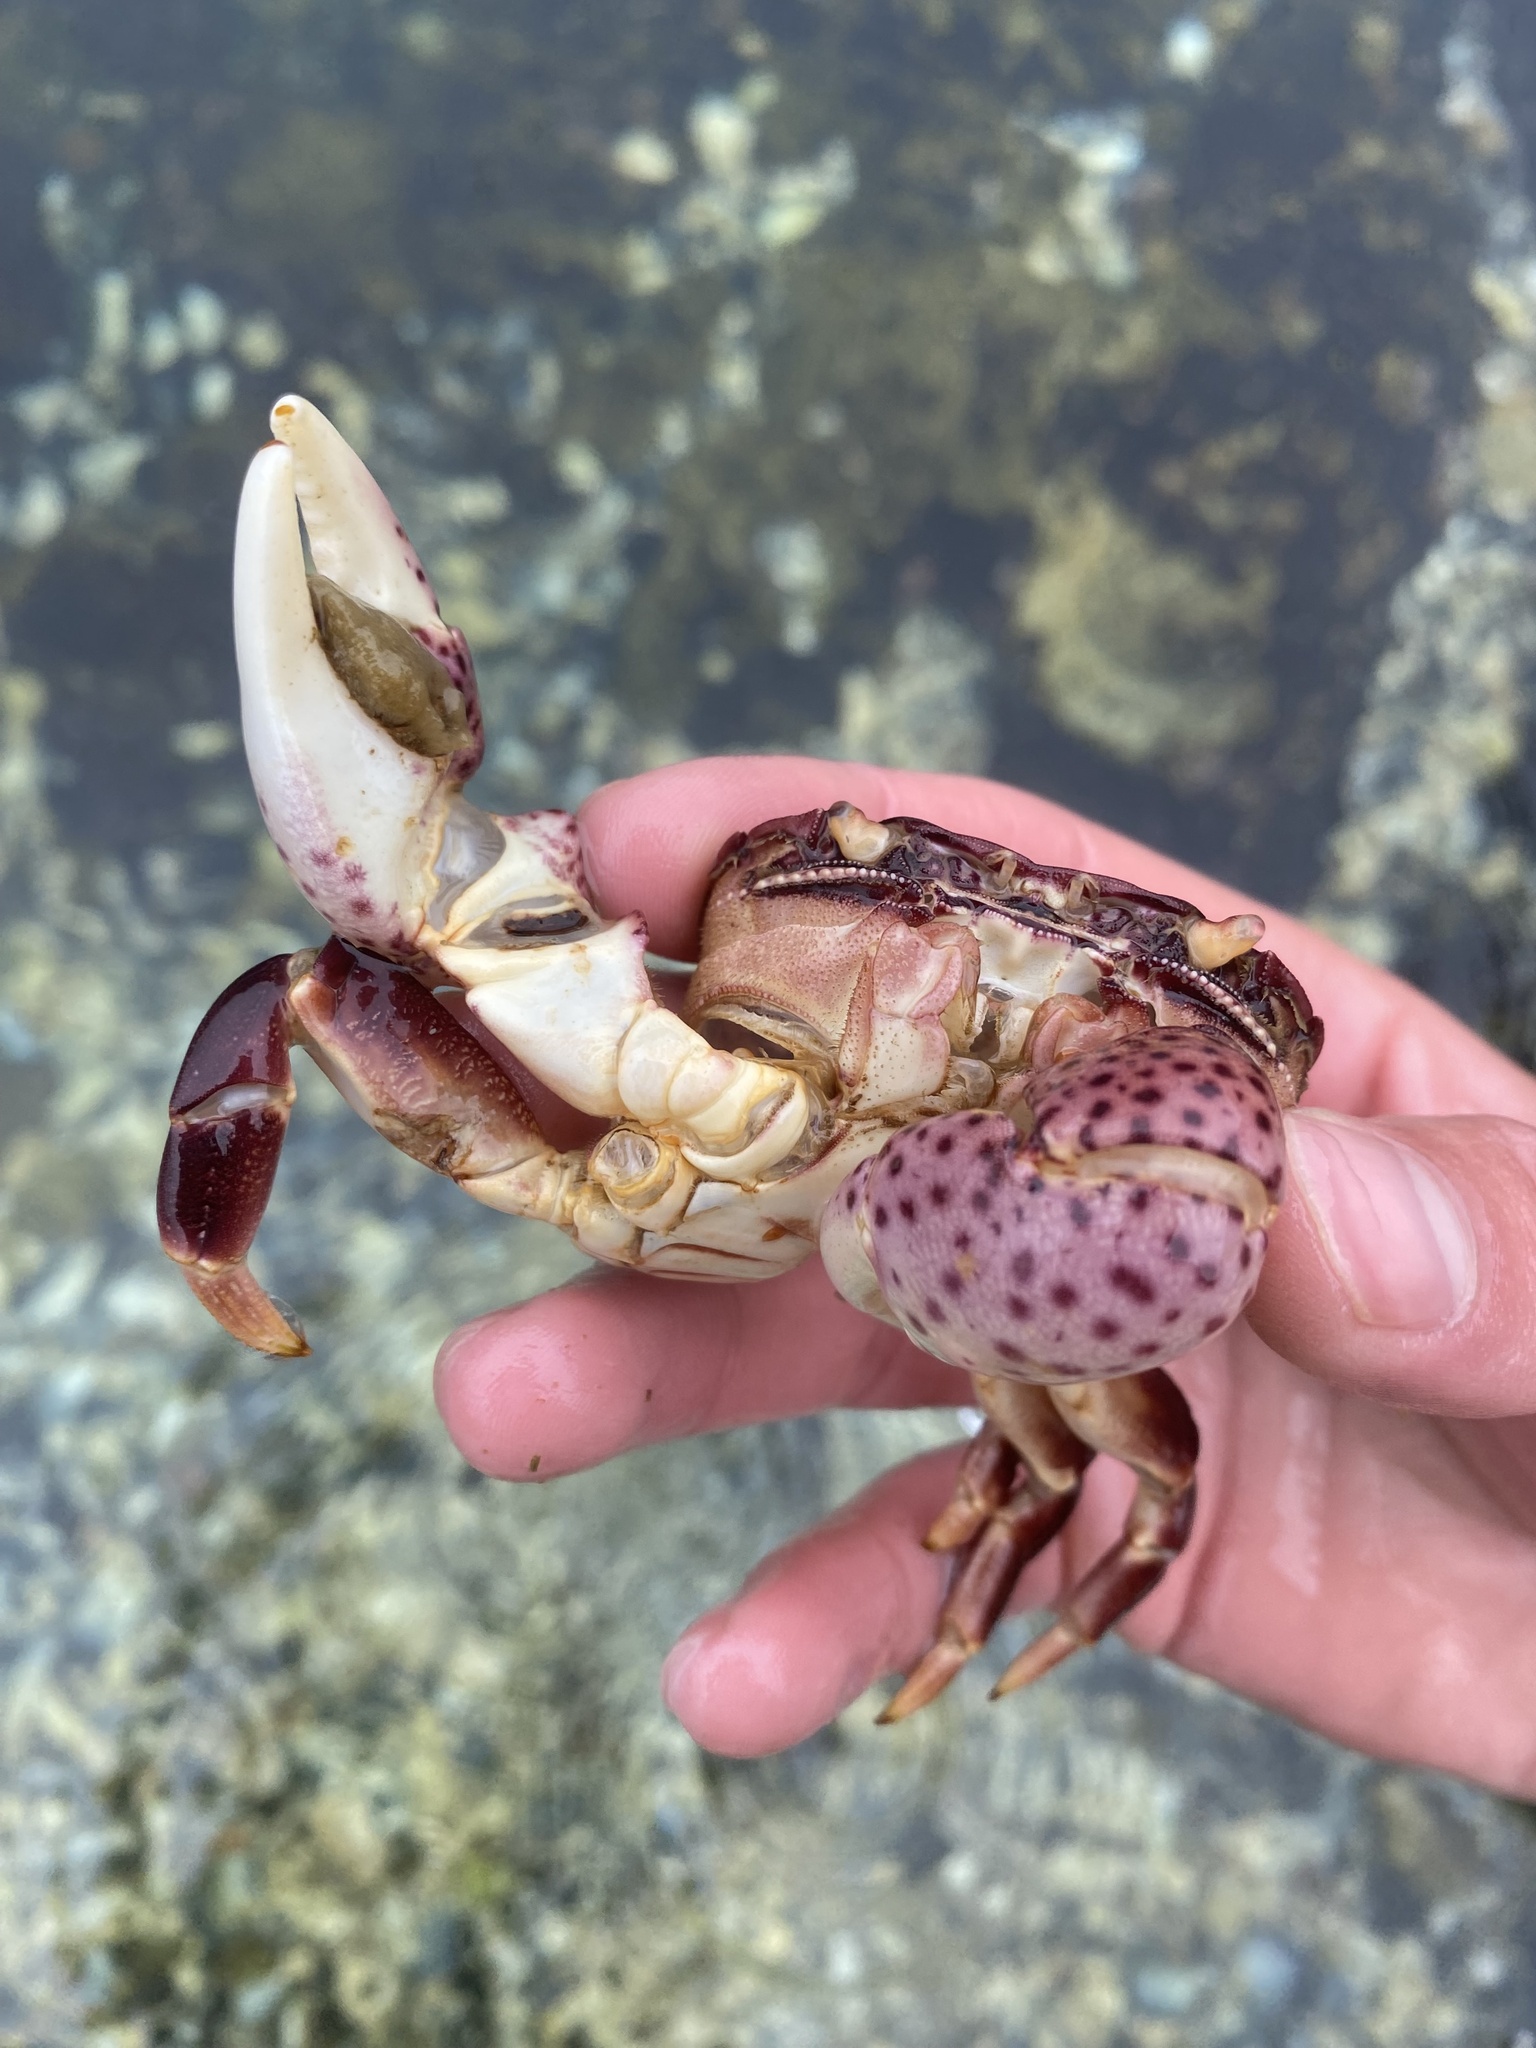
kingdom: Animalia
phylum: Arthropoda
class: Malacostraca
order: Decapoda
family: Varunidae
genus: Hemigrapsus
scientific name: Hemigrapsus nudus
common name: Purple shore crab
